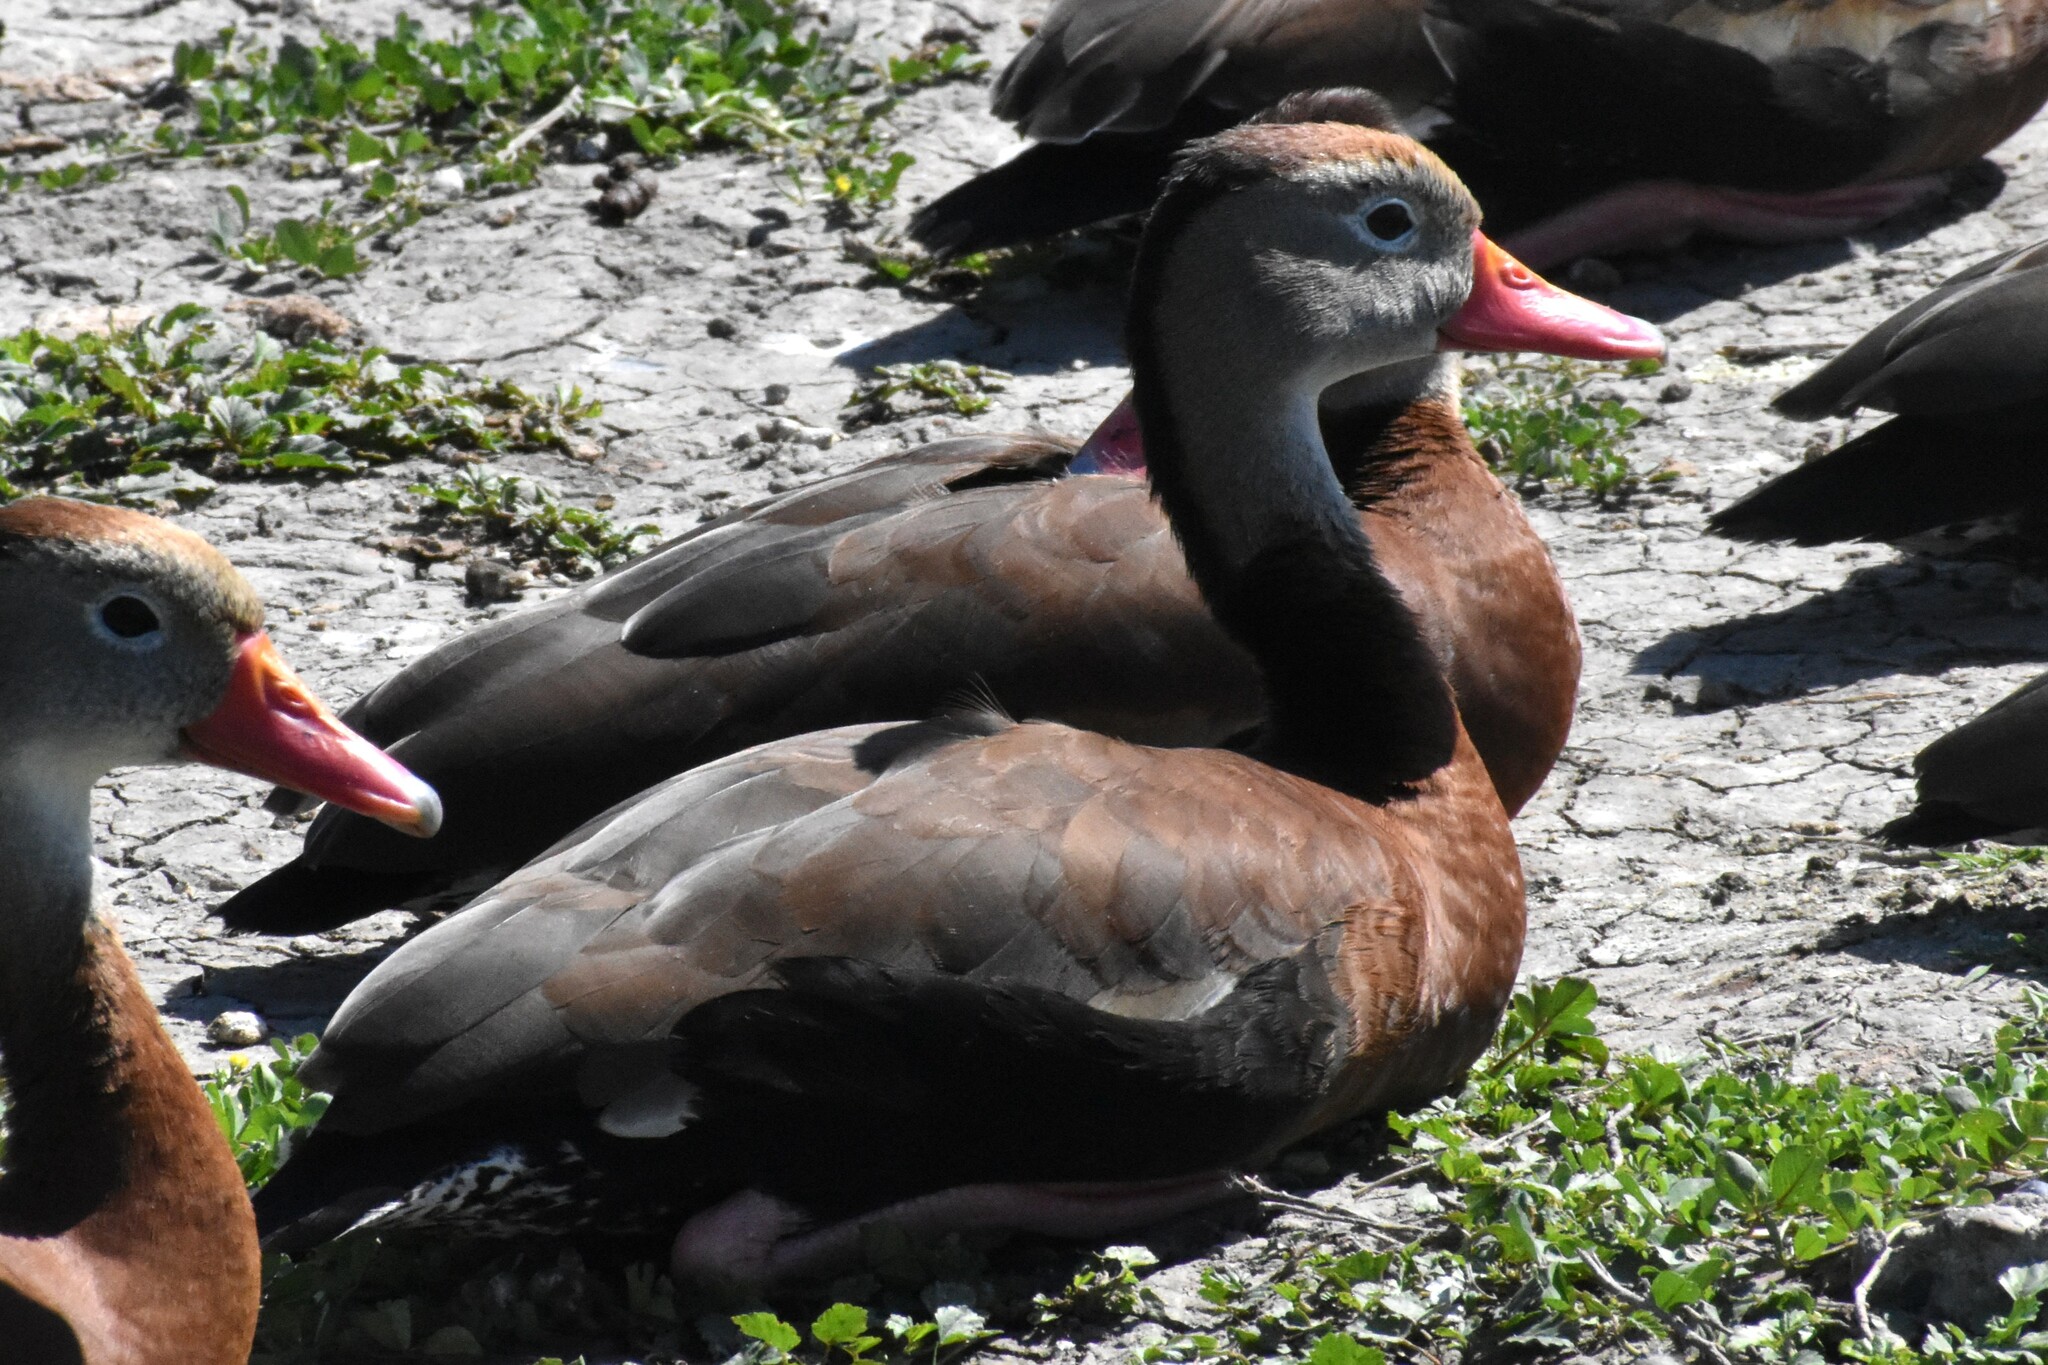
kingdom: Animalia
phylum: Chordata
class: Aves
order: Anseriformes
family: Anatidae
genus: Dendrocygna
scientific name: Dendrocygna autumnalis
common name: Black-bellied whistling duck
